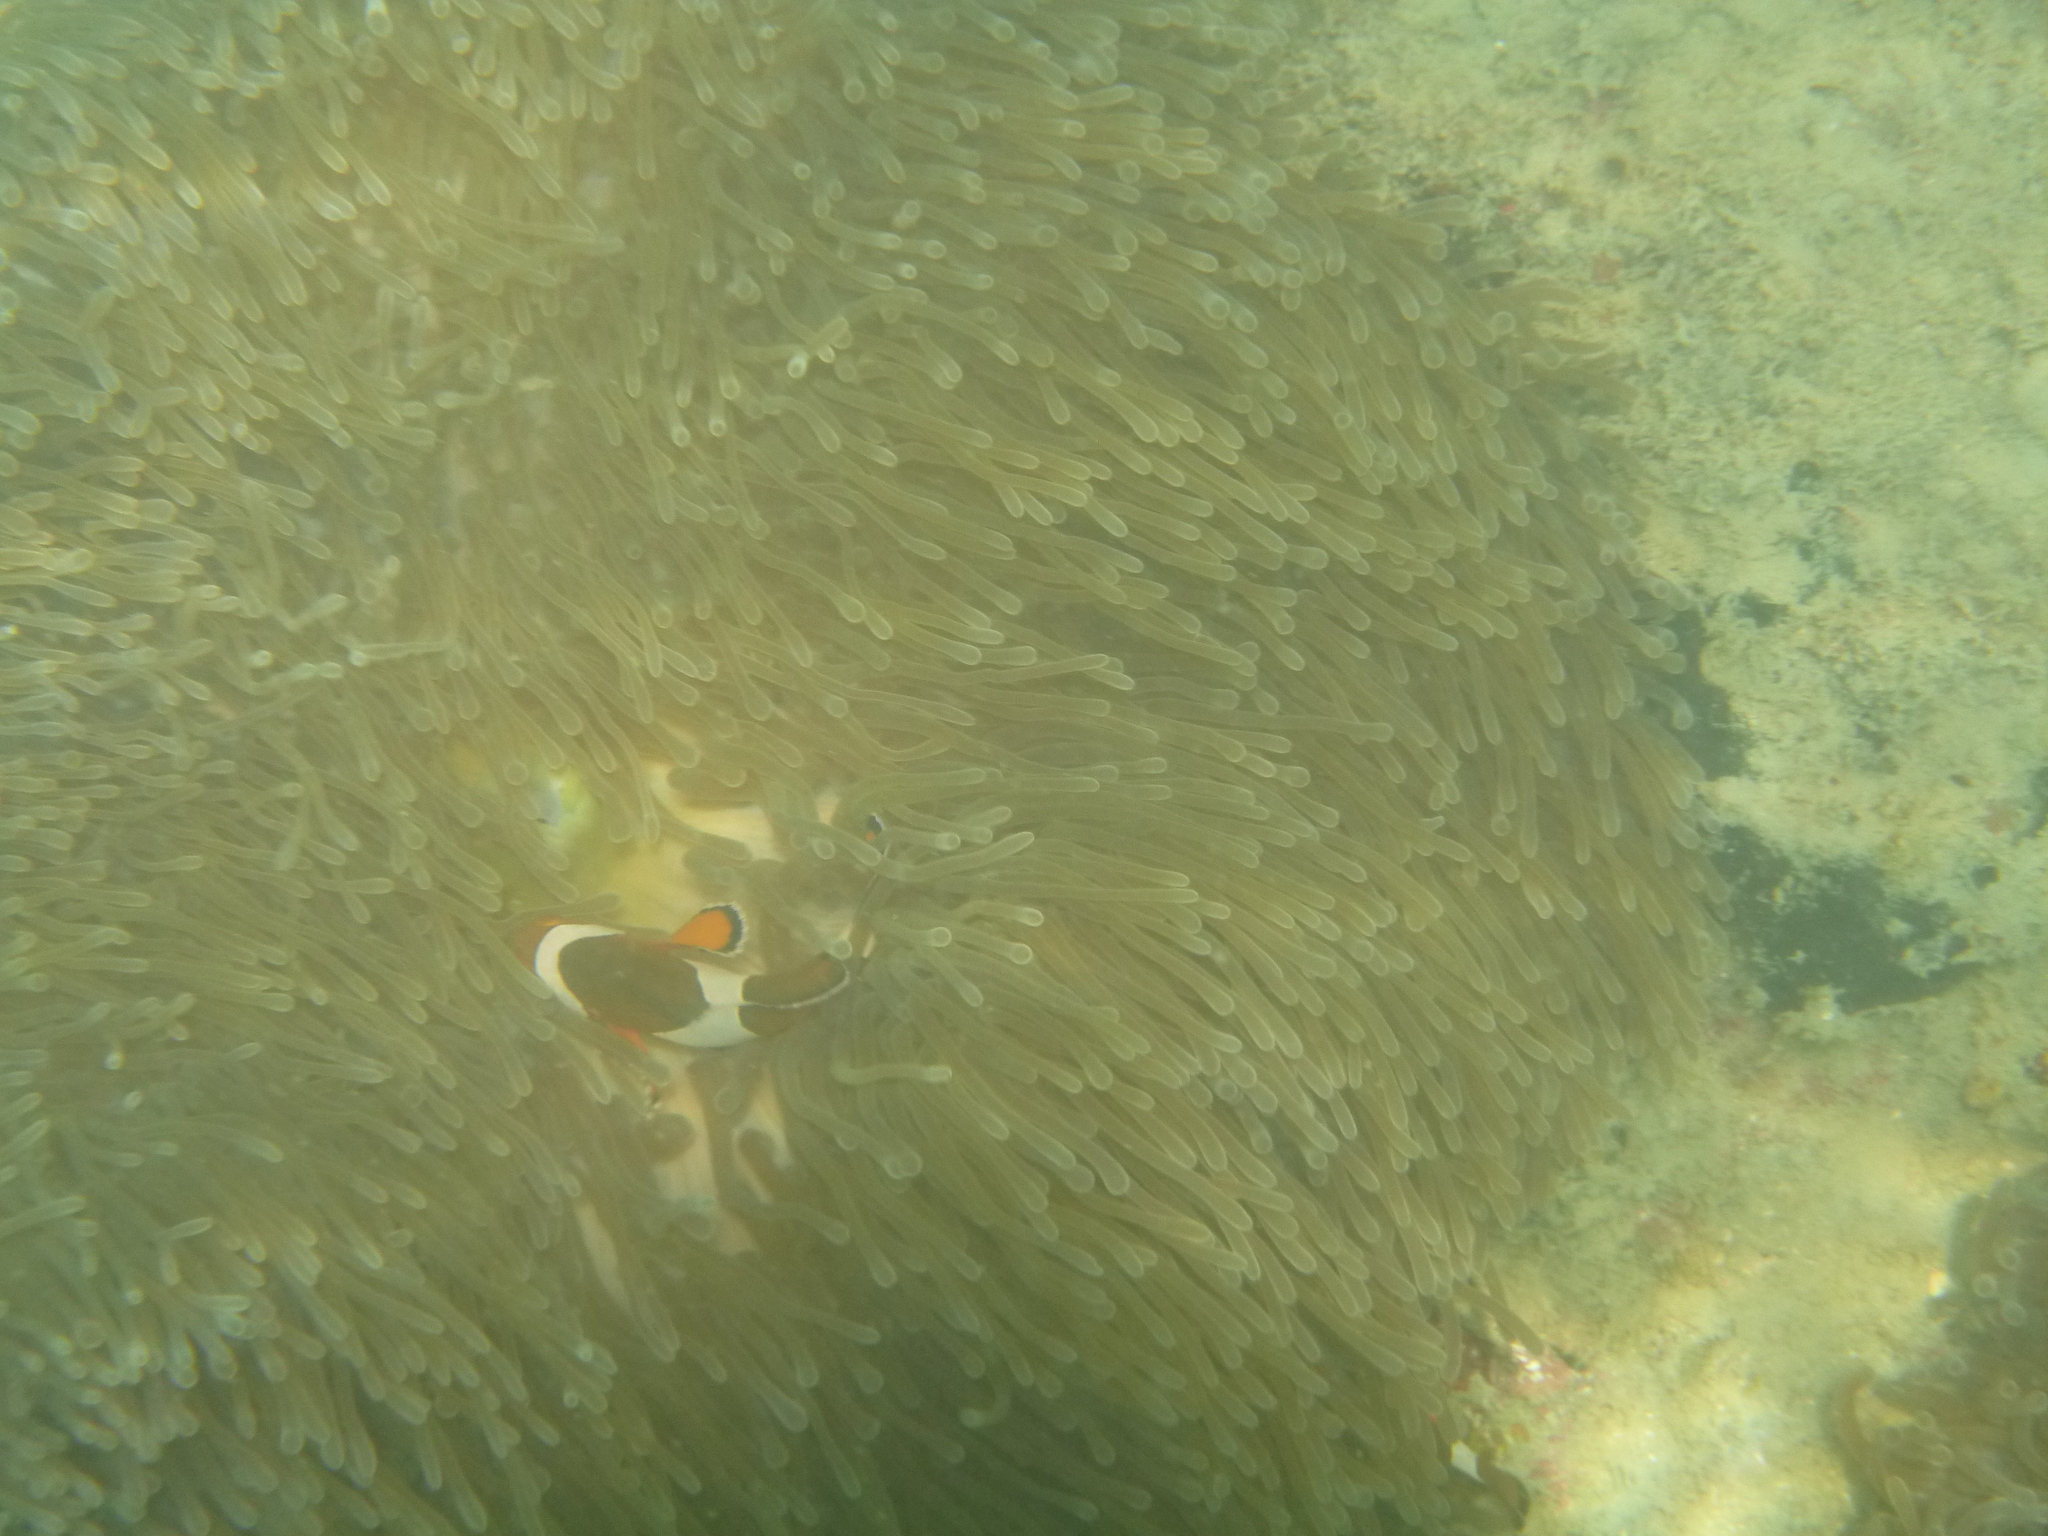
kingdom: Animalia
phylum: Chordata
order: Perciformes
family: Pomacentridae
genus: Amphiprion
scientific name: Amphiprion ocellaris
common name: Clown anemonefish
